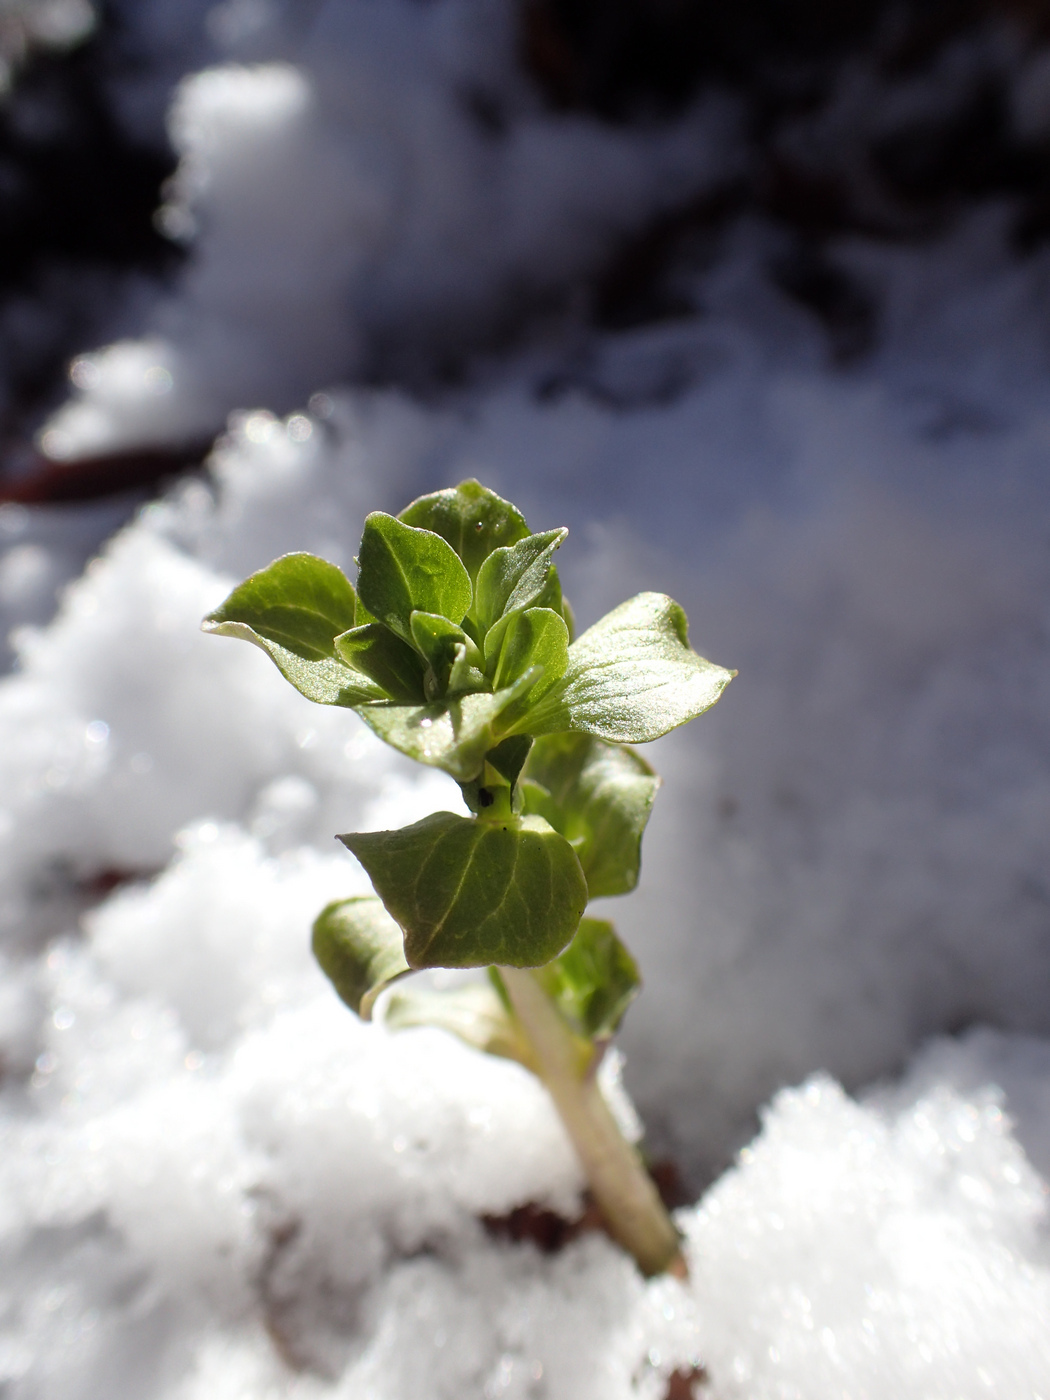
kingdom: Plantae
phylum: Tracheophyta
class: Magnoliopsida
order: Gentianales
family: Gentianaceae
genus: Obolaria
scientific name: Obolaria virginica
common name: Pennywort
